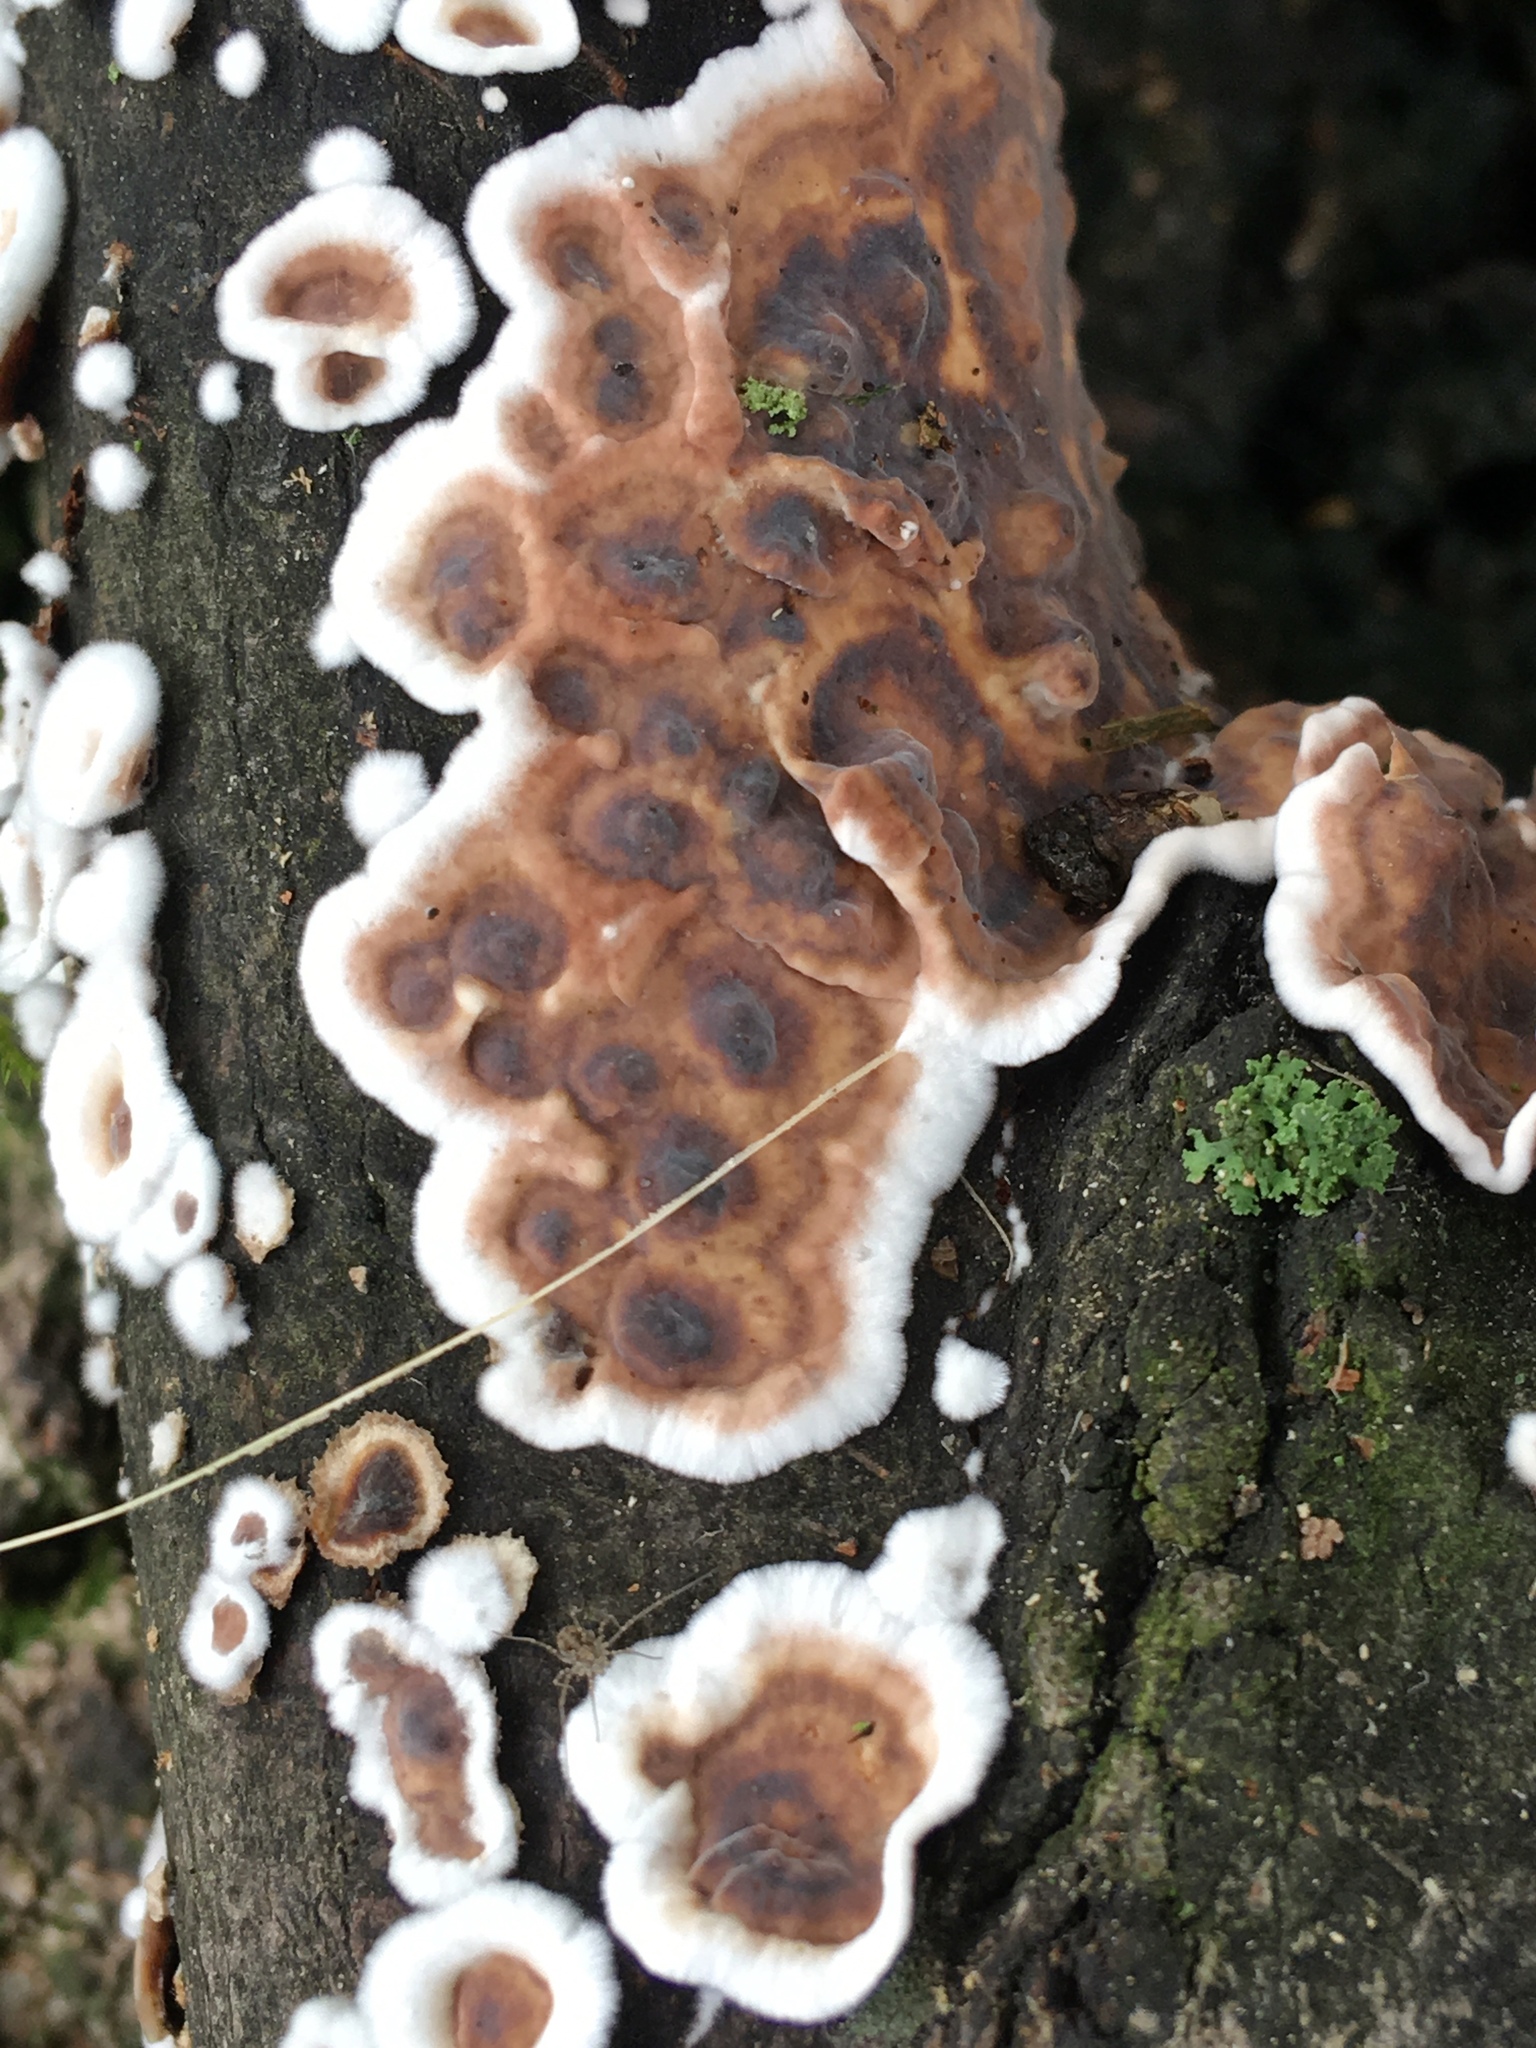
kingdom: Fungi
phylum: Basidiomycota
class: Agaricomycetes
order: Russulales
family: Peniophoraceae
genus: Peniophora
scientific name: Peniophora albobadia
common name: Giraffe spots
